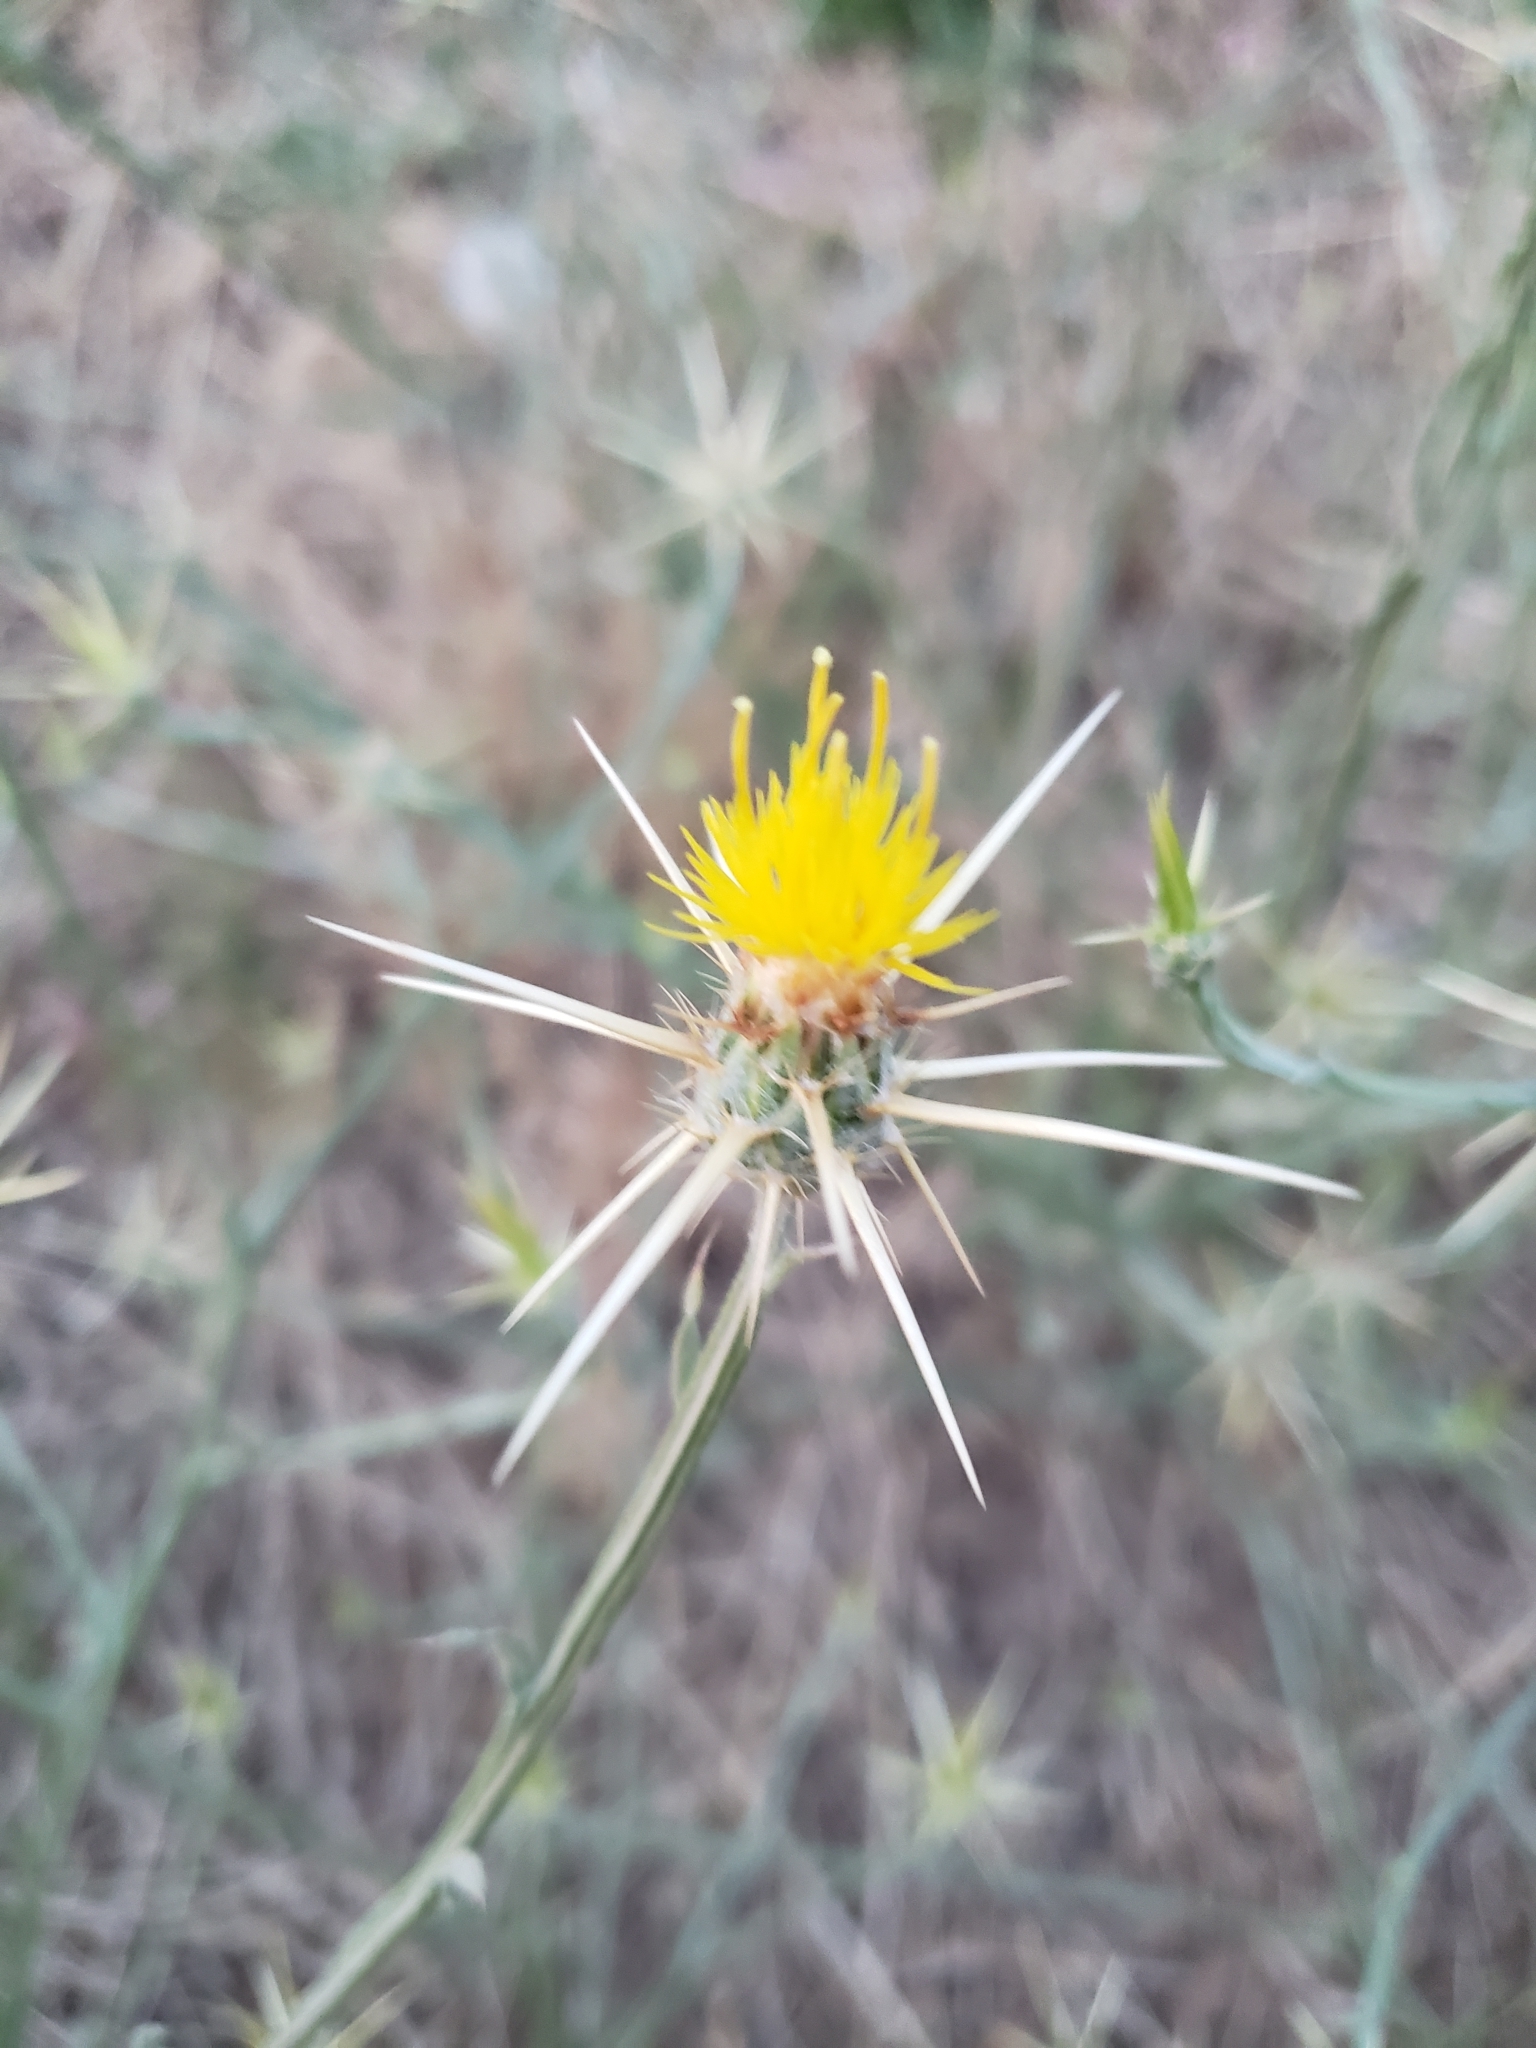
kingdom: Plantae
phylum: Tracheophyta
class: Magnoliopsida
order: Asterales
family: Asteraceae
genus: Centaurea
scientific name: Centaurea solstitialis
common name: Yellow star-thistle
